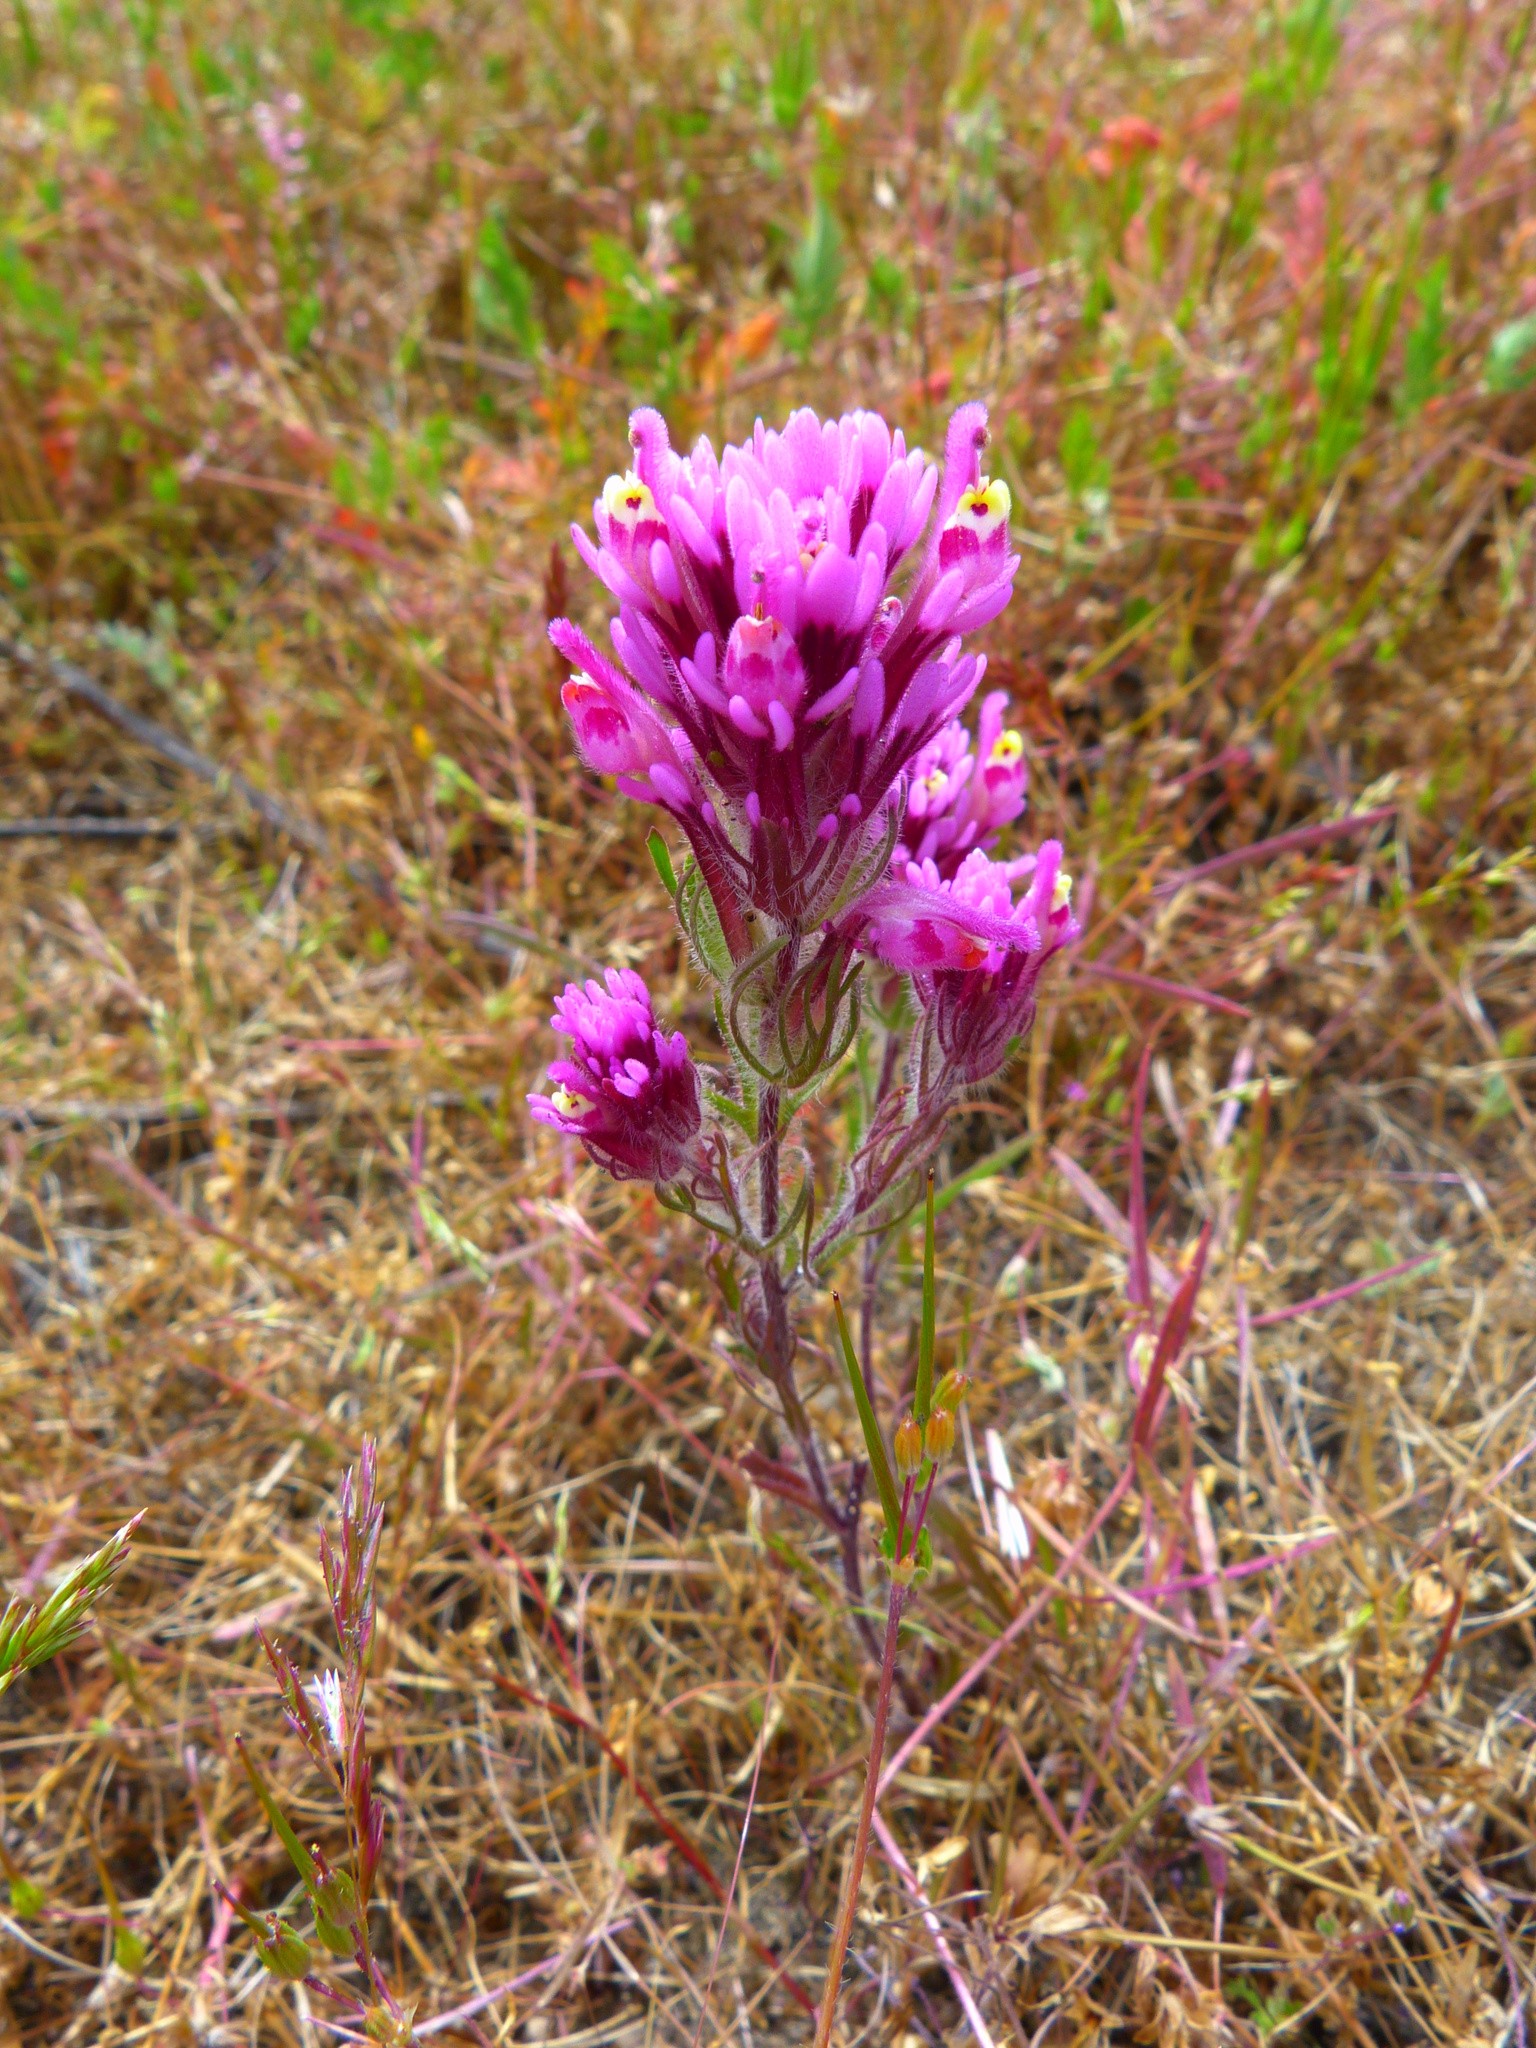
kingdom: Plantae
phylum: Tracheophyta
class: Magnoliopsida
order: Lamiales
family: Orobanchaceae
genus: Castilleja
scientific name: Castilleja exserta
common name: Purple owl-clover
